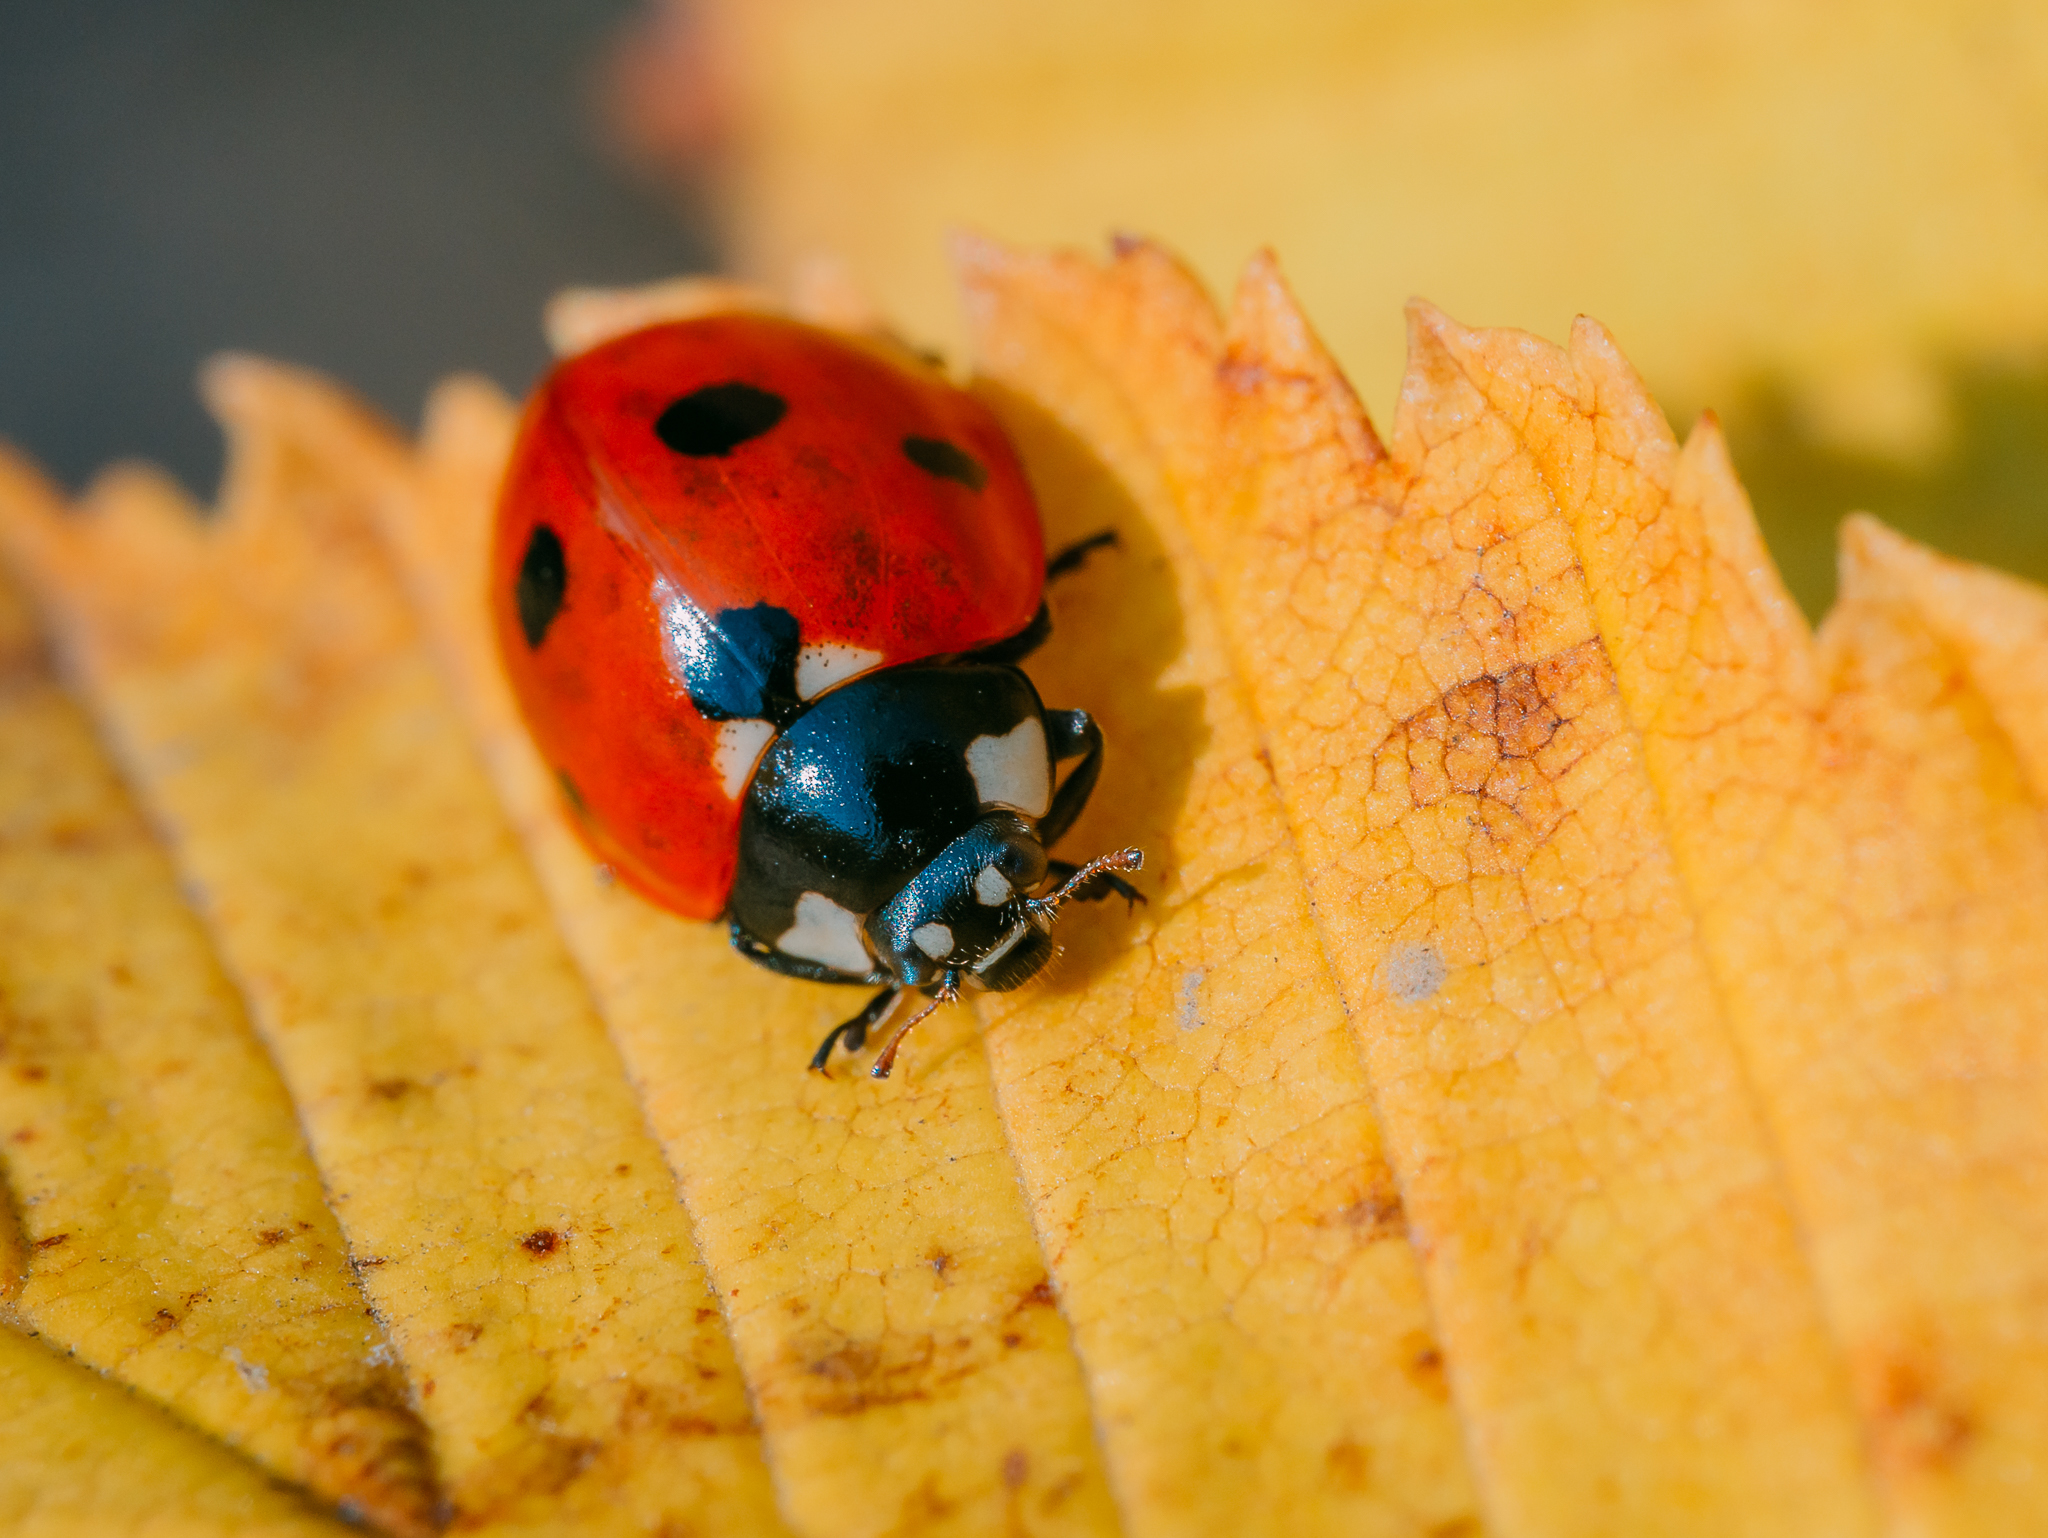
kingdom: Animalia
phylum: Arthropoda
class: Insecta
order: Coleoptera
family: Coccinellidae
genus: Coccinella
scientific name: Coccinella septempunctata
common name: Sevenspotted lady beetle
